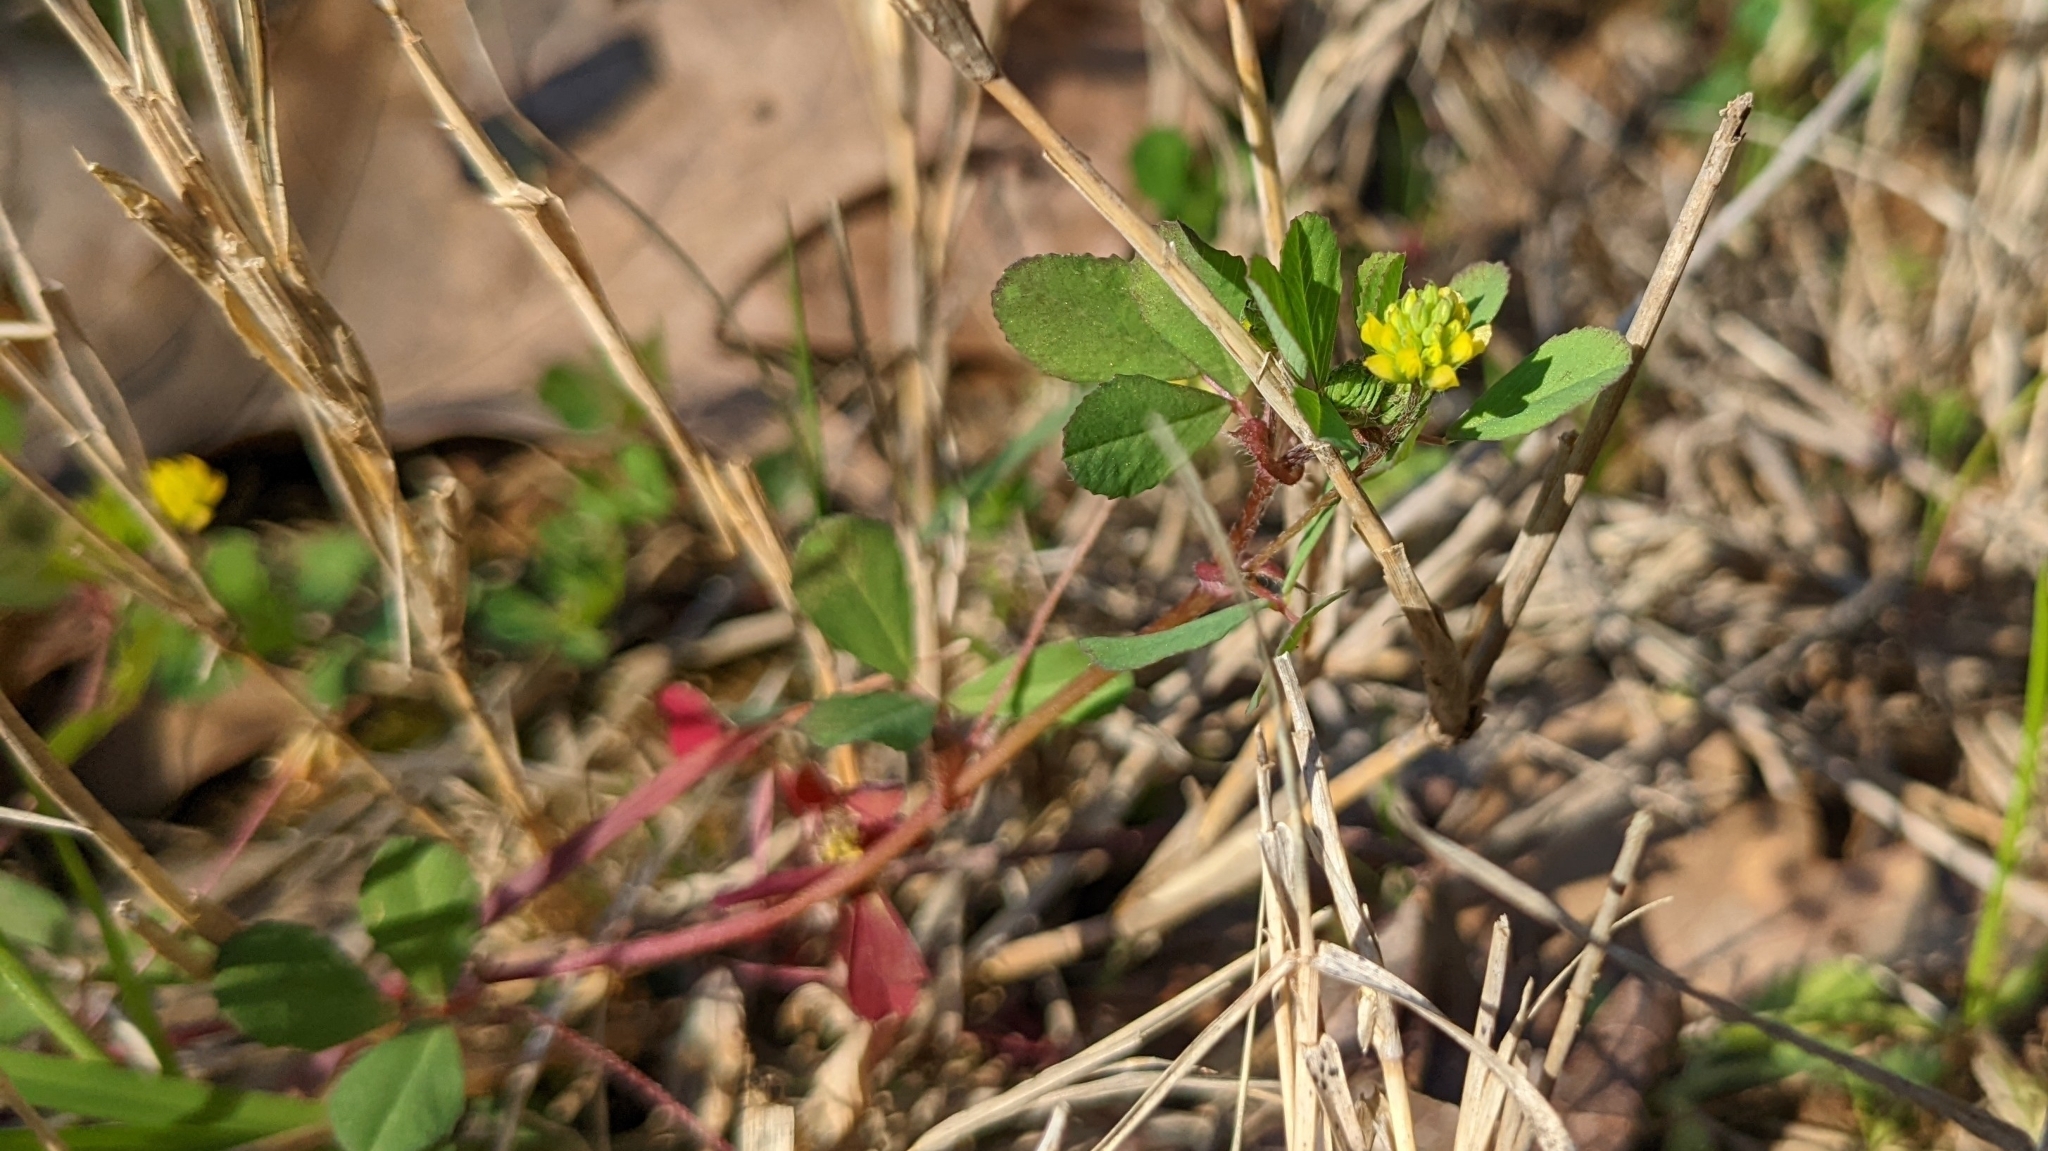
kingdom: Plantae
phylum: Tracheophyta
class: Magnoliopsida
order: Fabales
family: Fabaceae
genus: Trifolium
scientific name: Trifolium dubium
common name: Suckling clover
